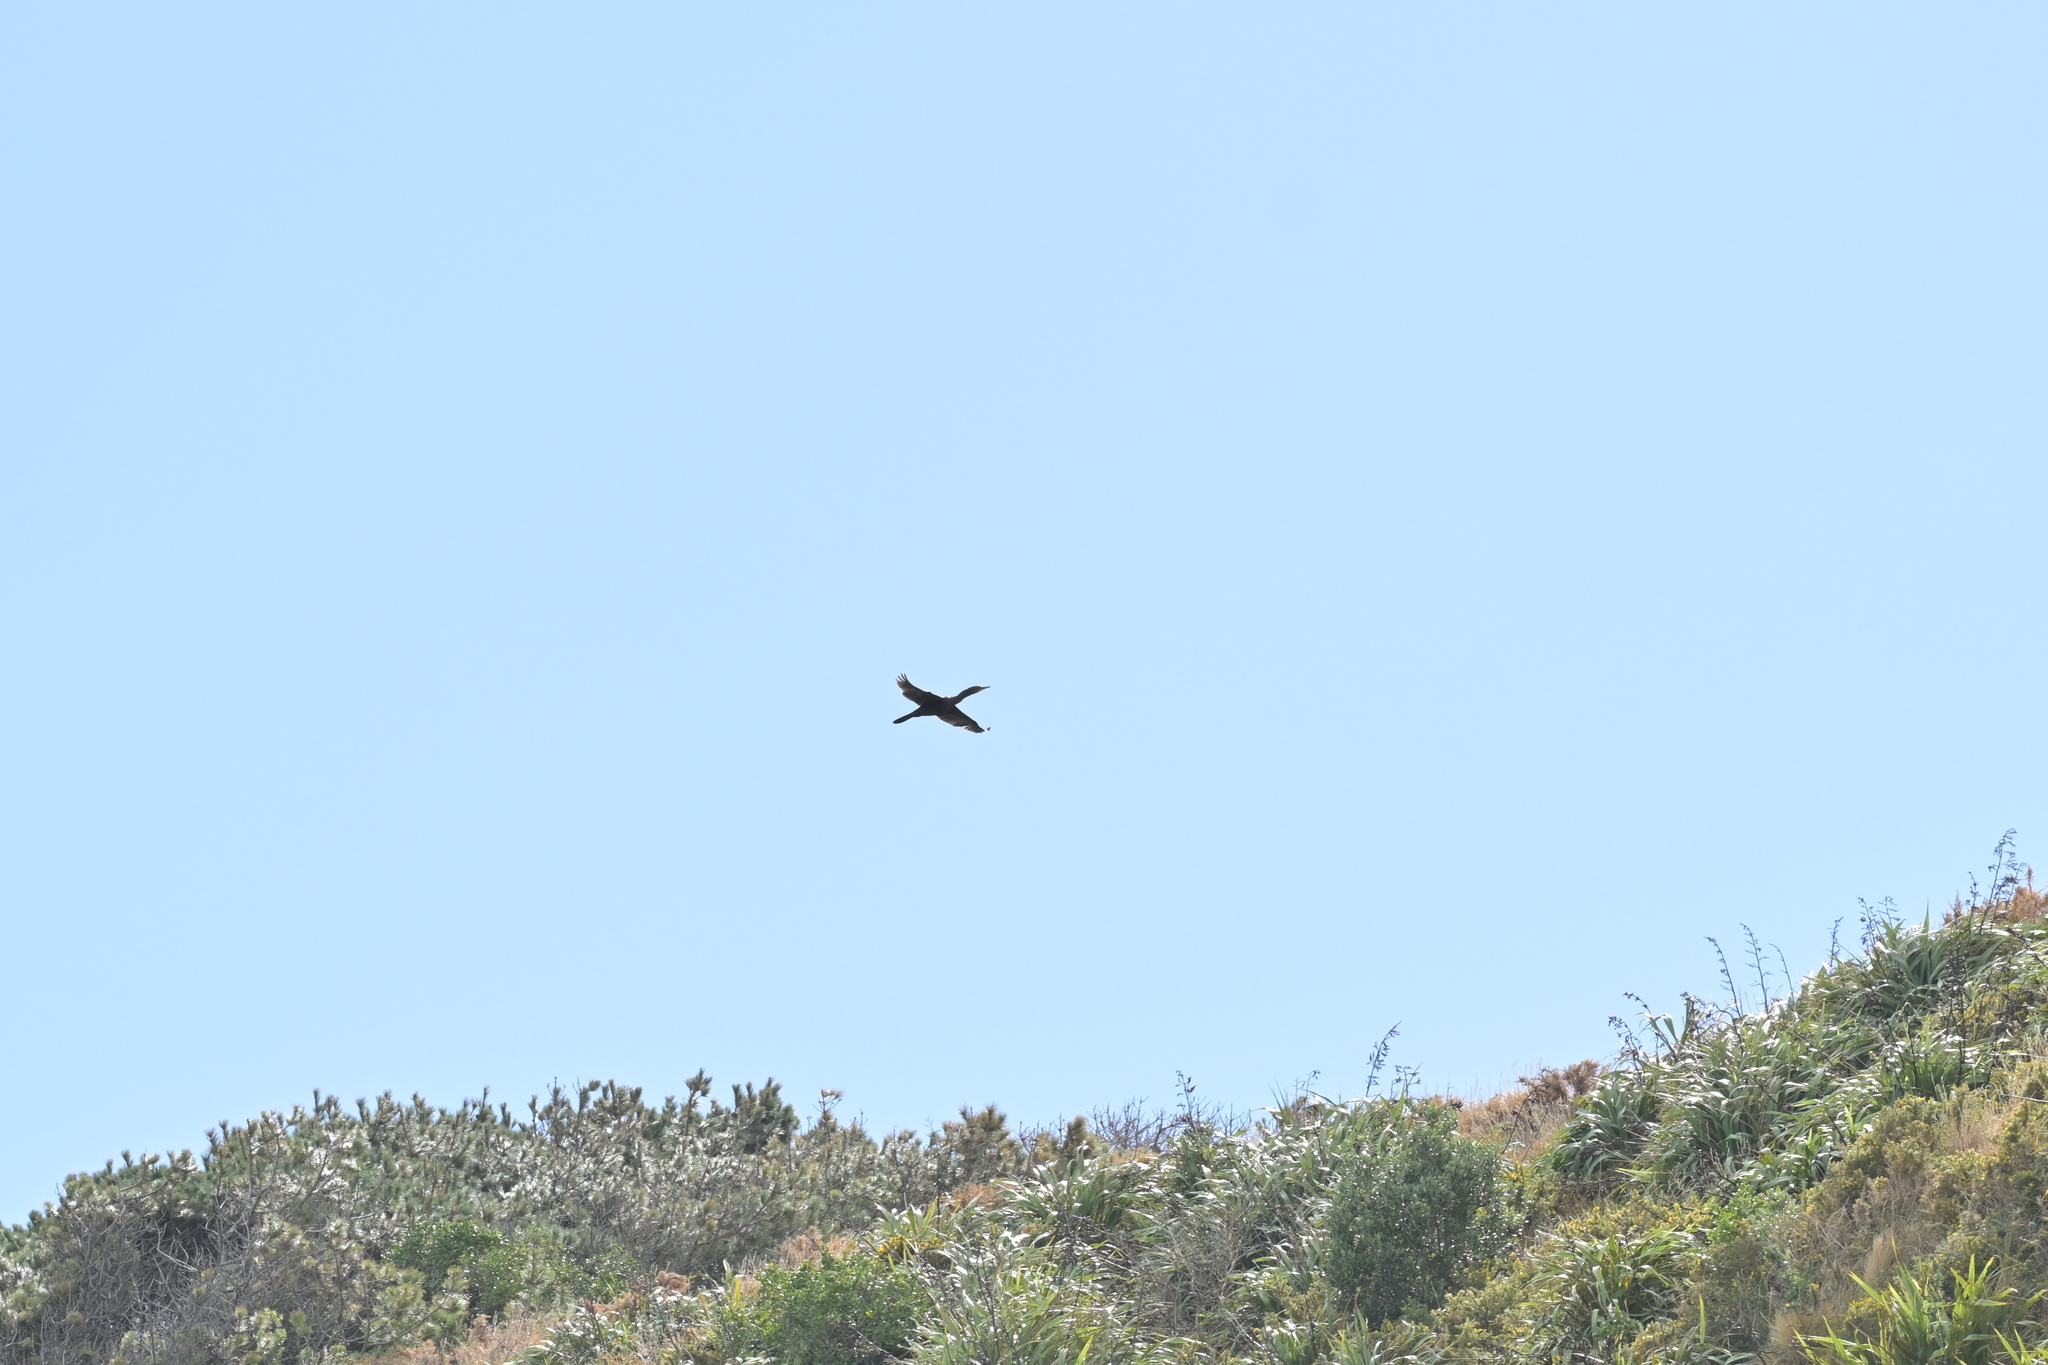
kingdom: Animalia
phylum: Chordata
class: Aves
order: Suliformes
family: Phalacrocoracidae
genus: Phalacrocorax
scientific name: Phalacrocorax carbo
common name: Great cormorant
